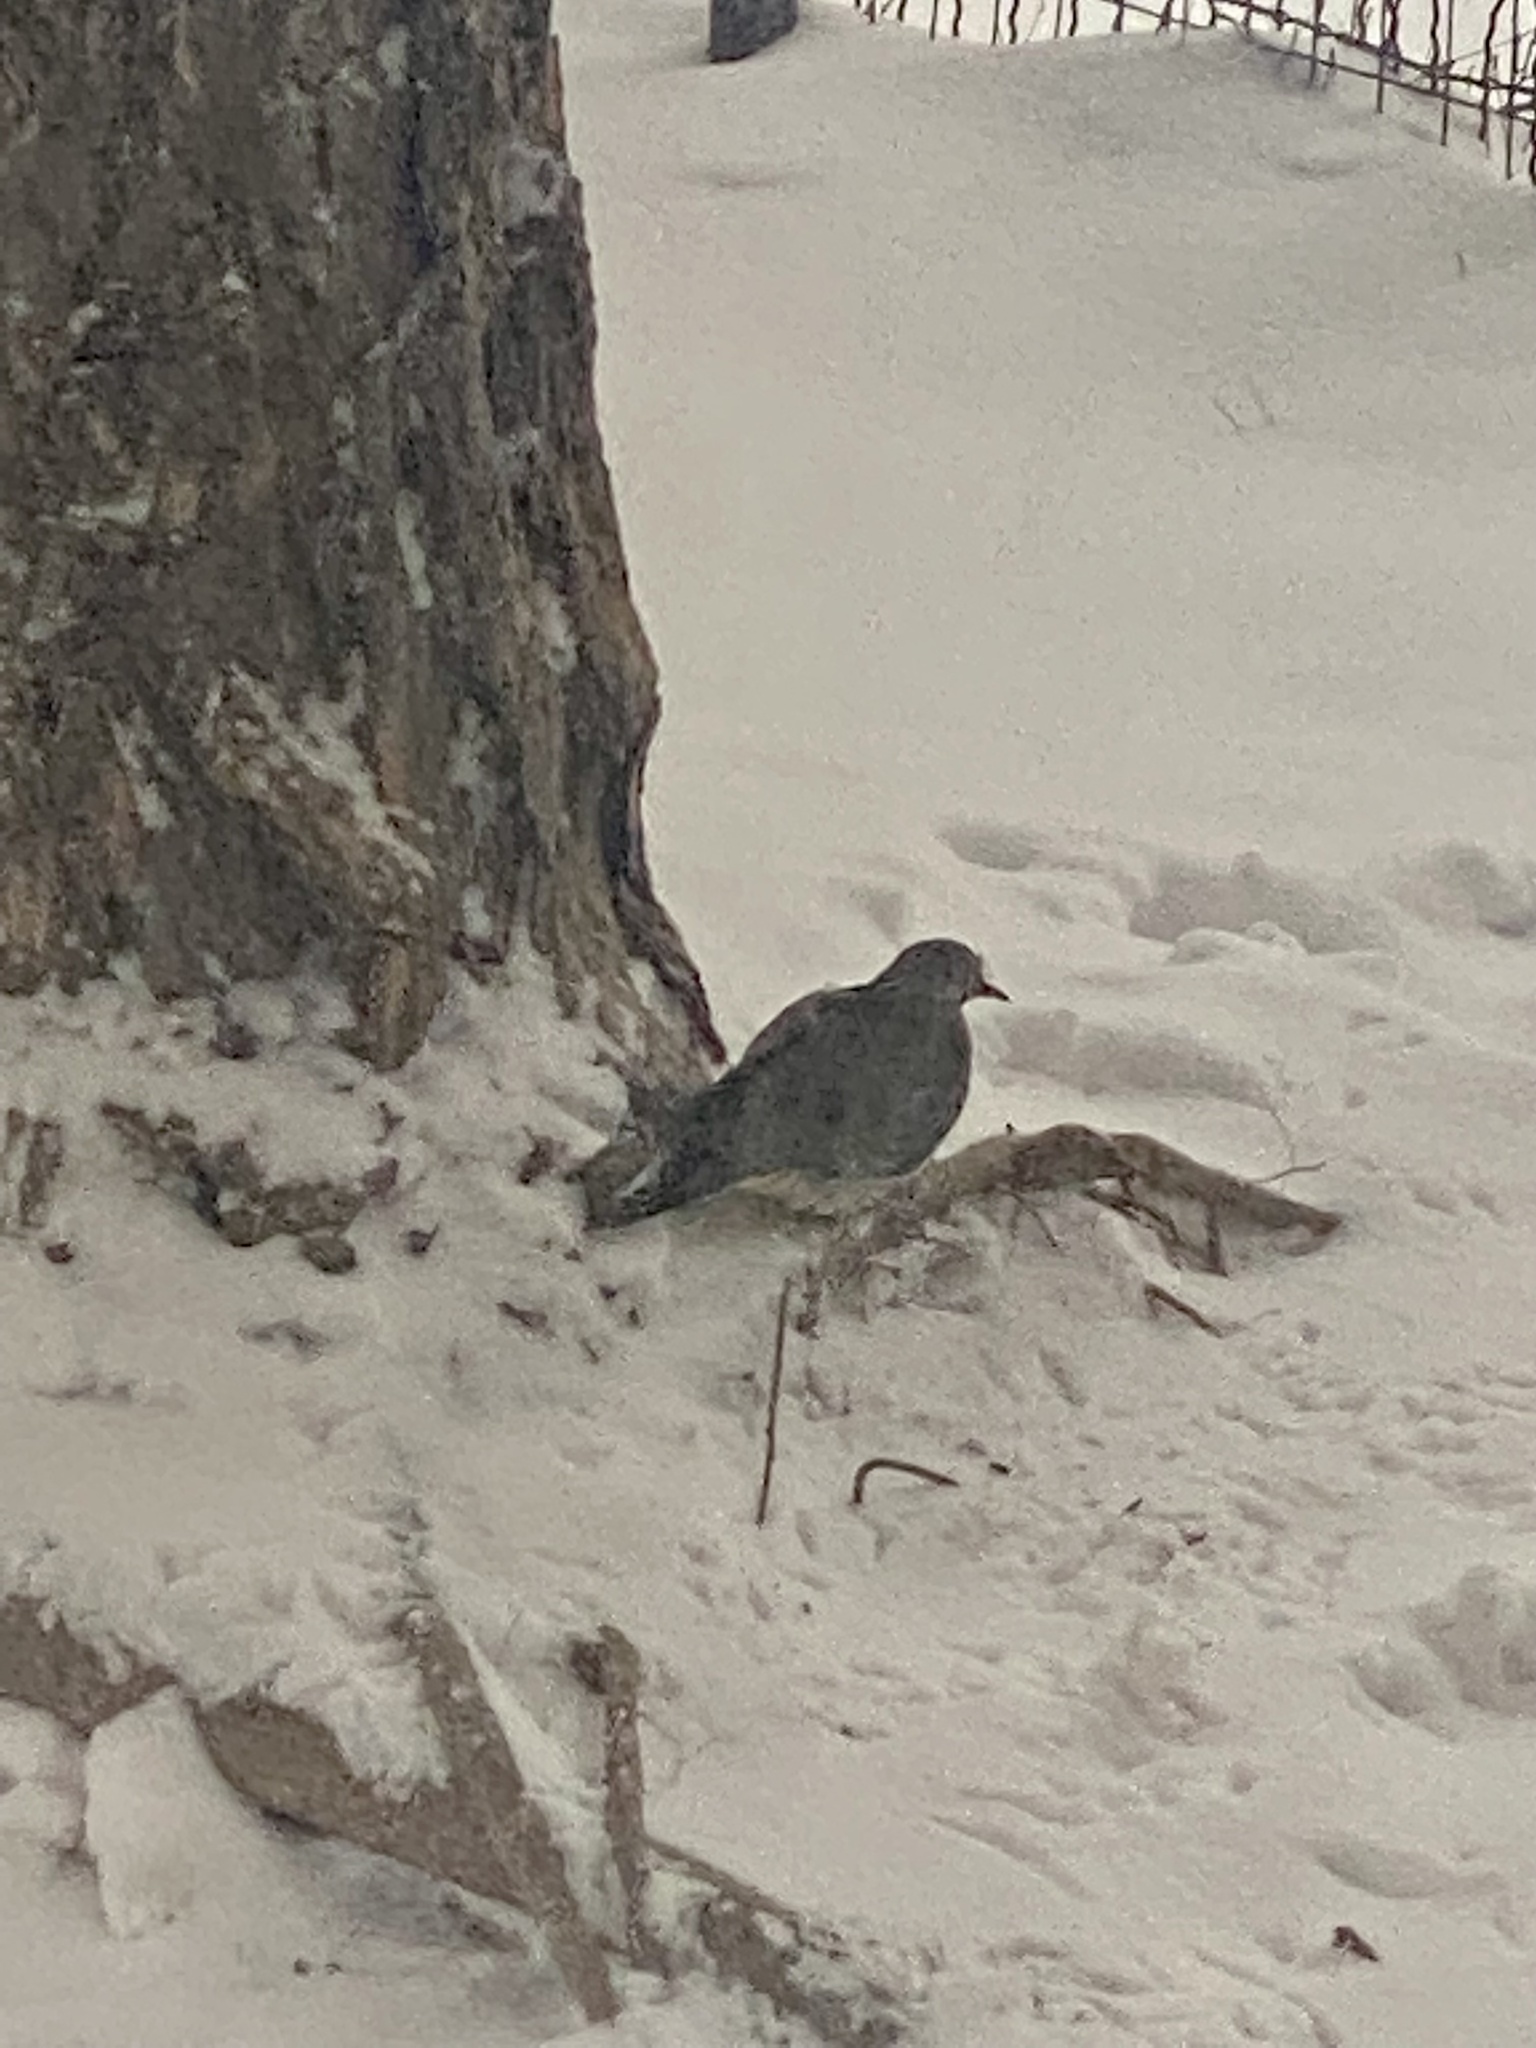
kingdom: Animalia
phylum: Chordata
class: Aves
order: Columbiformes
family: Columbidae
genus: Zenaida
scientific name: Zenaida macroura
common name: Mourning dove
